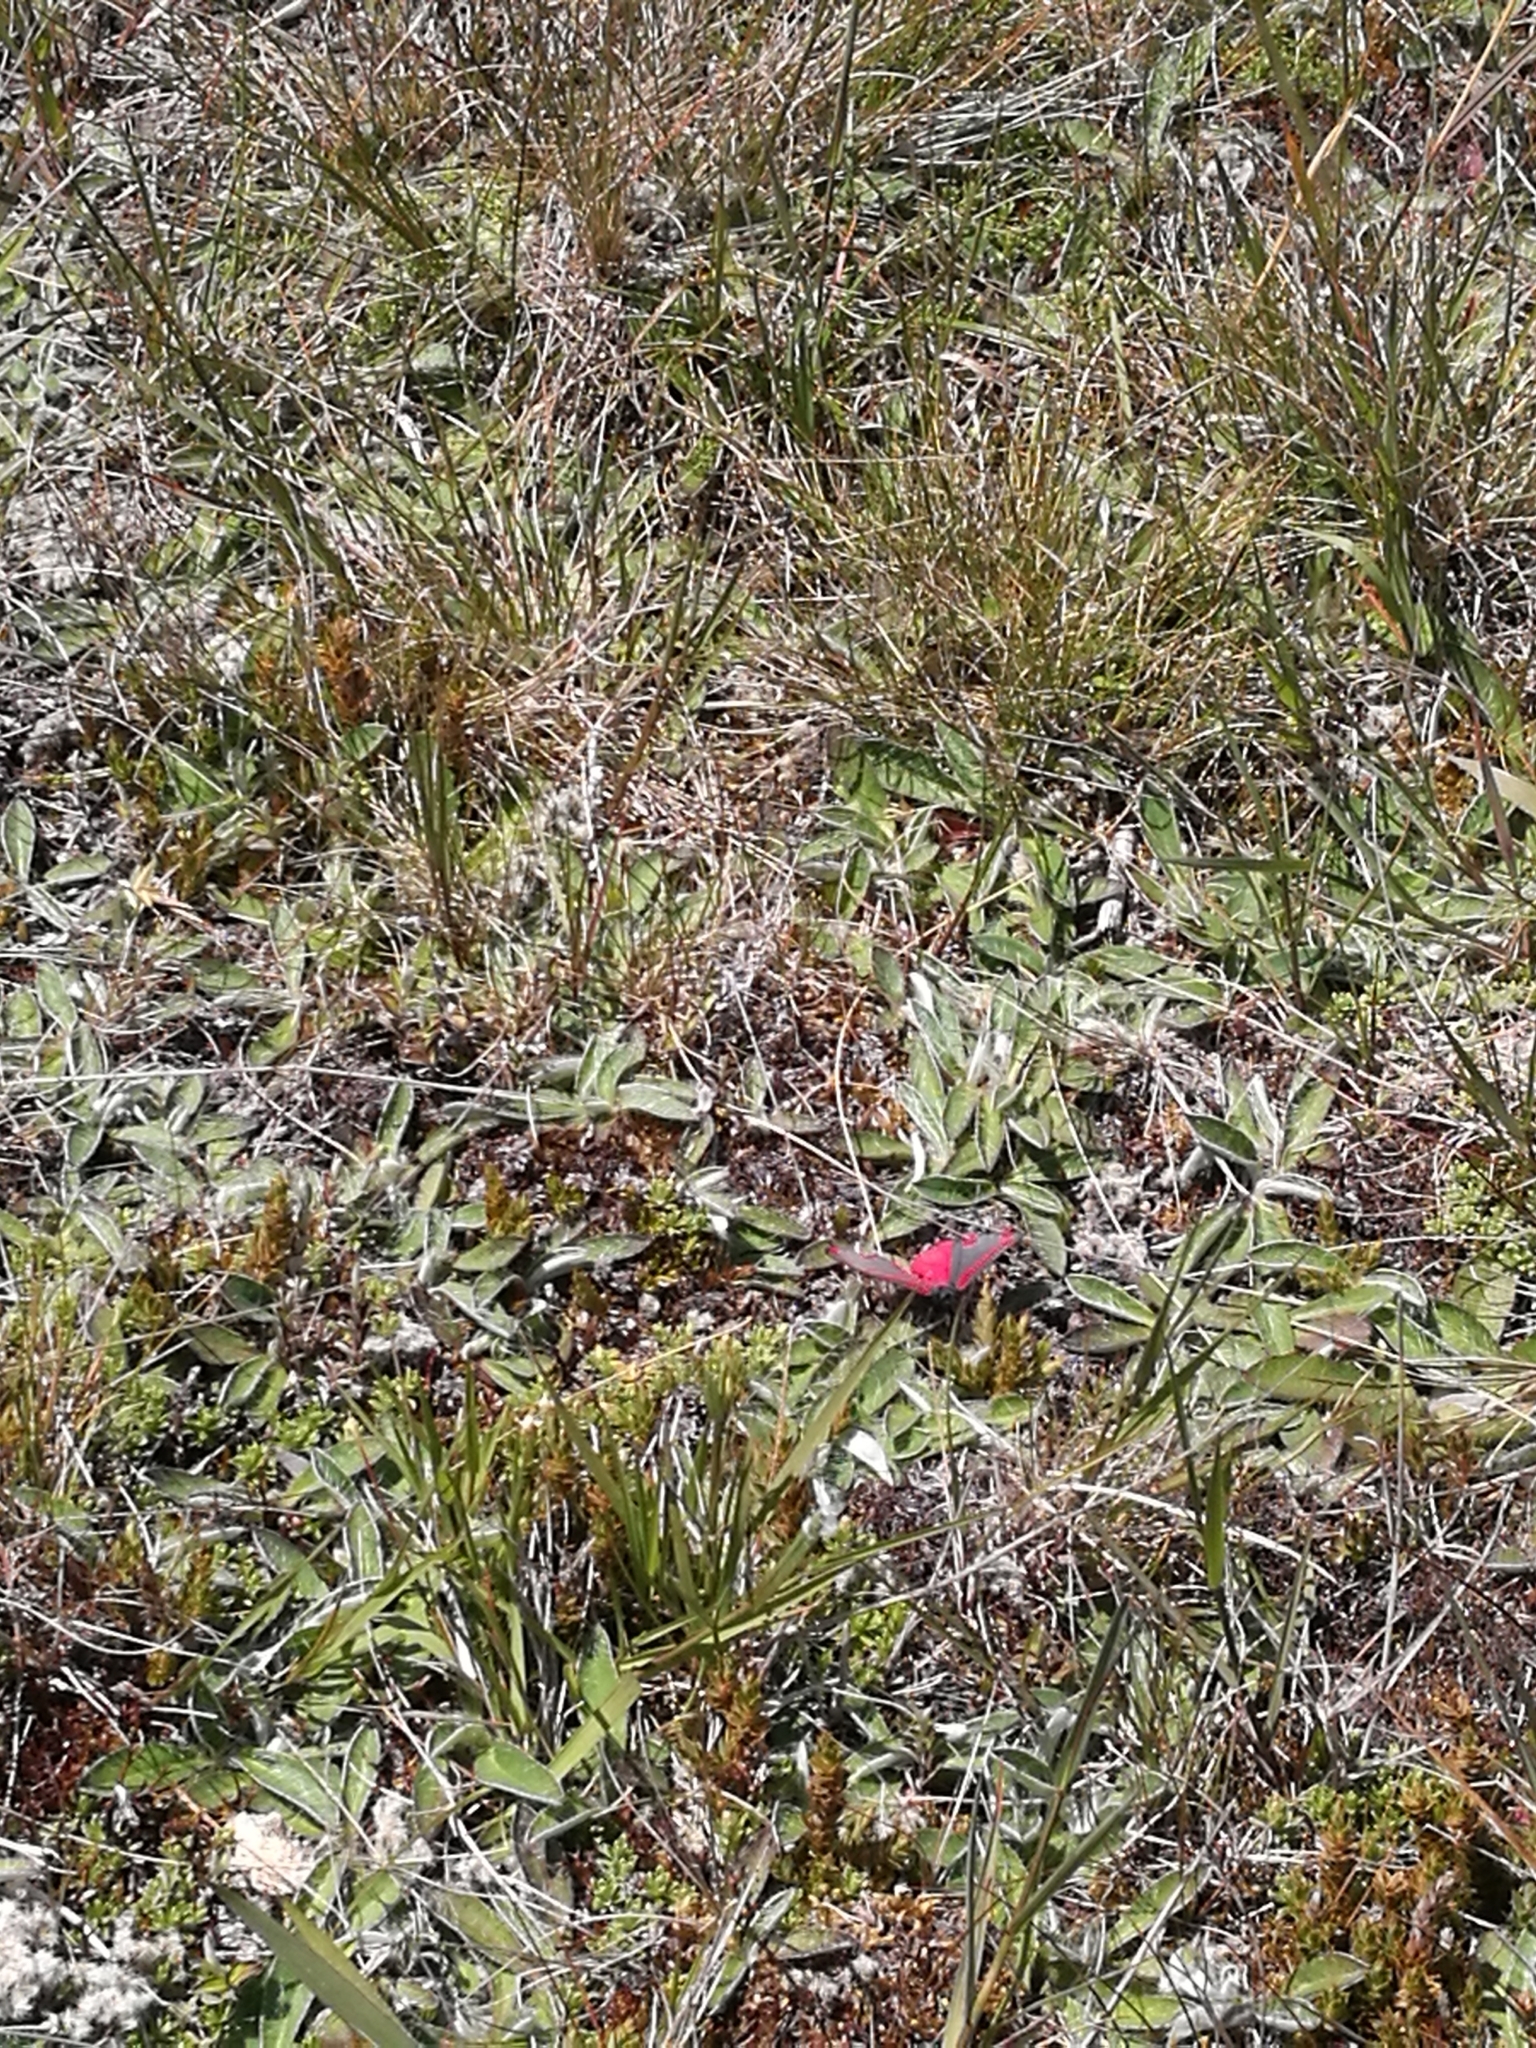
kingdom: Animalia
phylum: Arthropoda
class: Insecta
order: Lepidoptera
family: Erebidae
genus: Tyria
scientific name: Tyria jacobaeae
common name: Cinnabar
